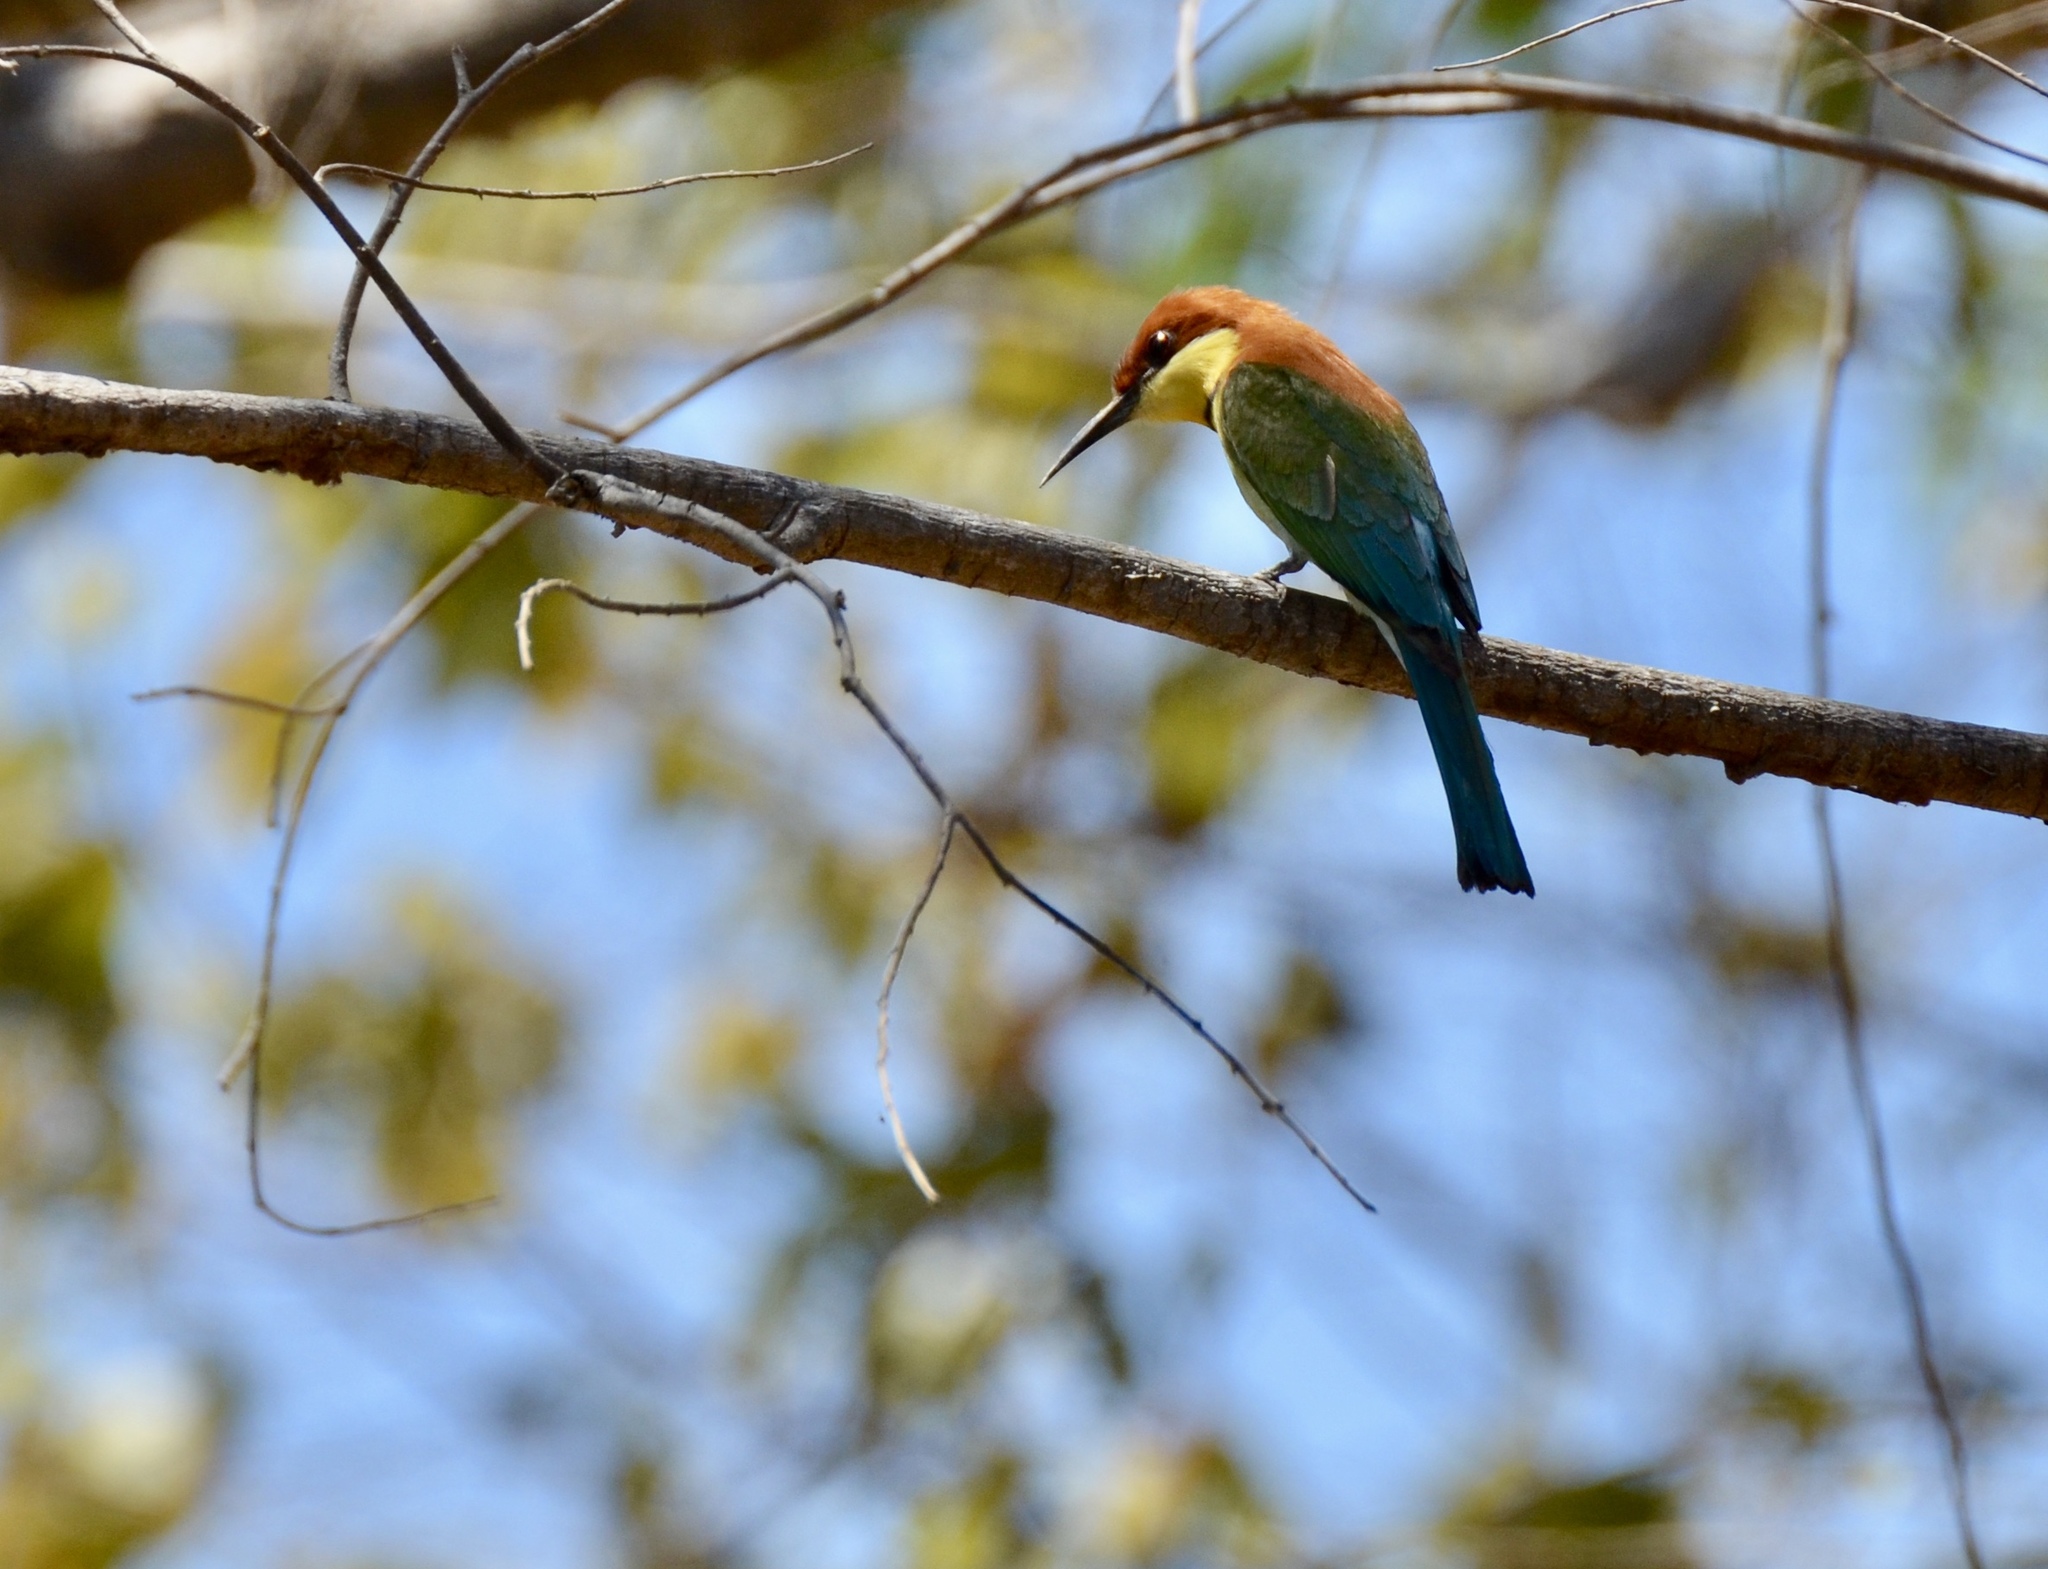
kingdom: Animalia
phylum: Chordata
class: Aves
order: Coraciiformes
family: Meropidae
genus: Merops
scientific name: Merops leschenaulti
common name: Chestnut-headed bee-eater
